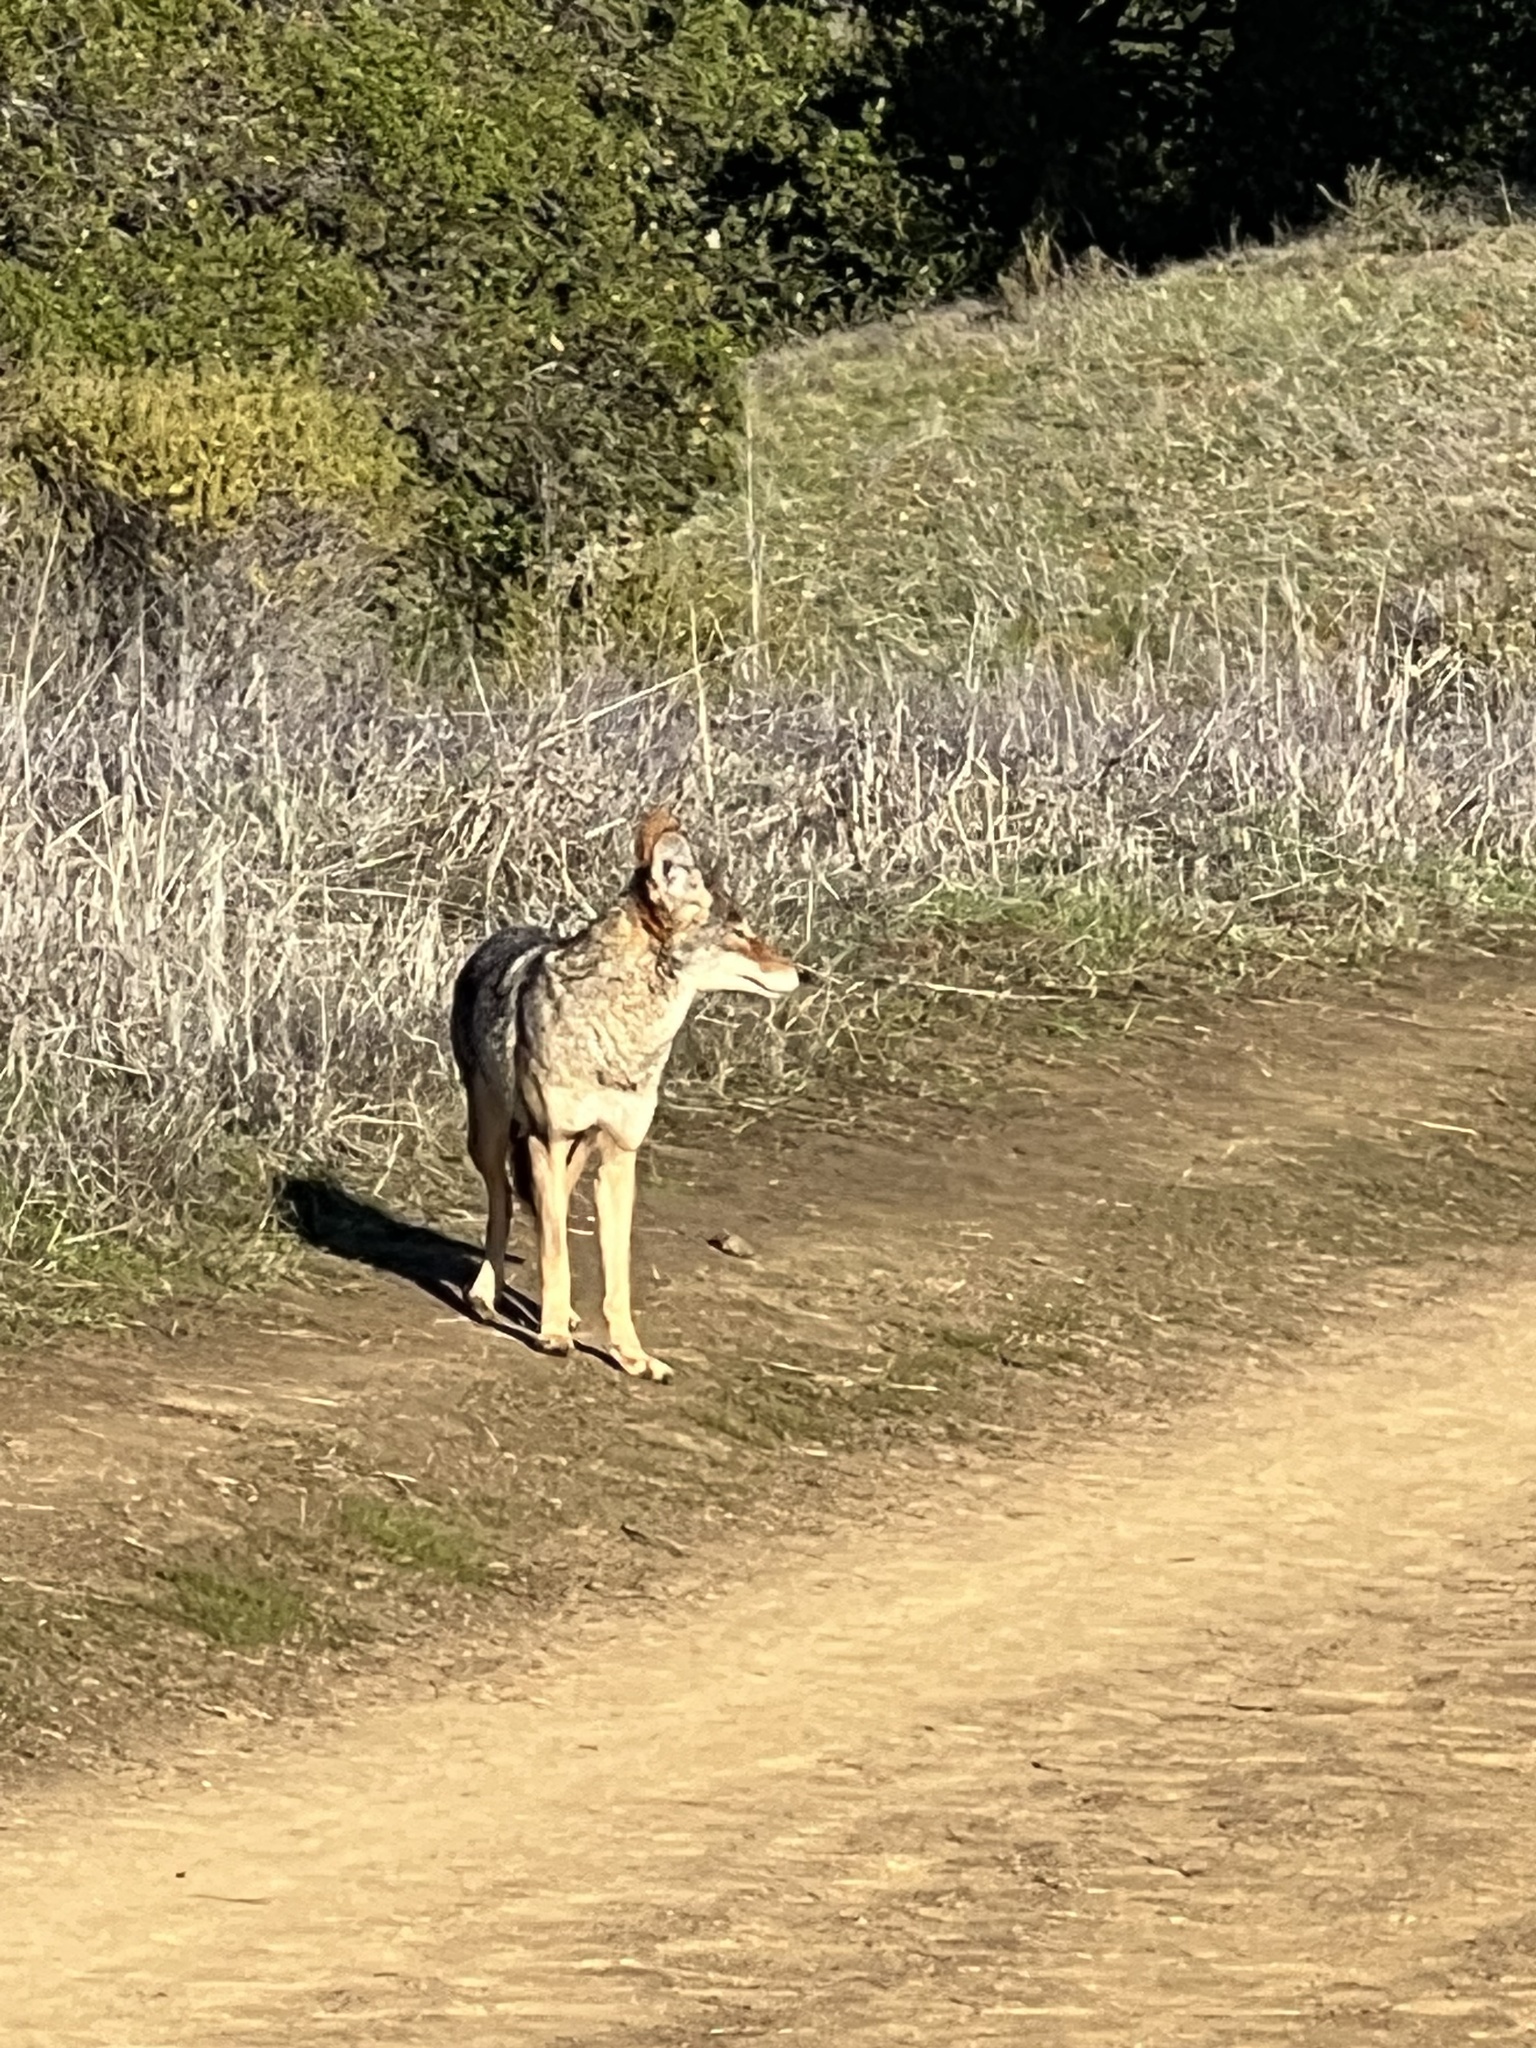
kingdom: Animalia
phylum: Chordata
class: Mammalia
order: Carnivora
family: Canidae
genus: Canis
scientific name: Canis latrans
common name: Coyote
